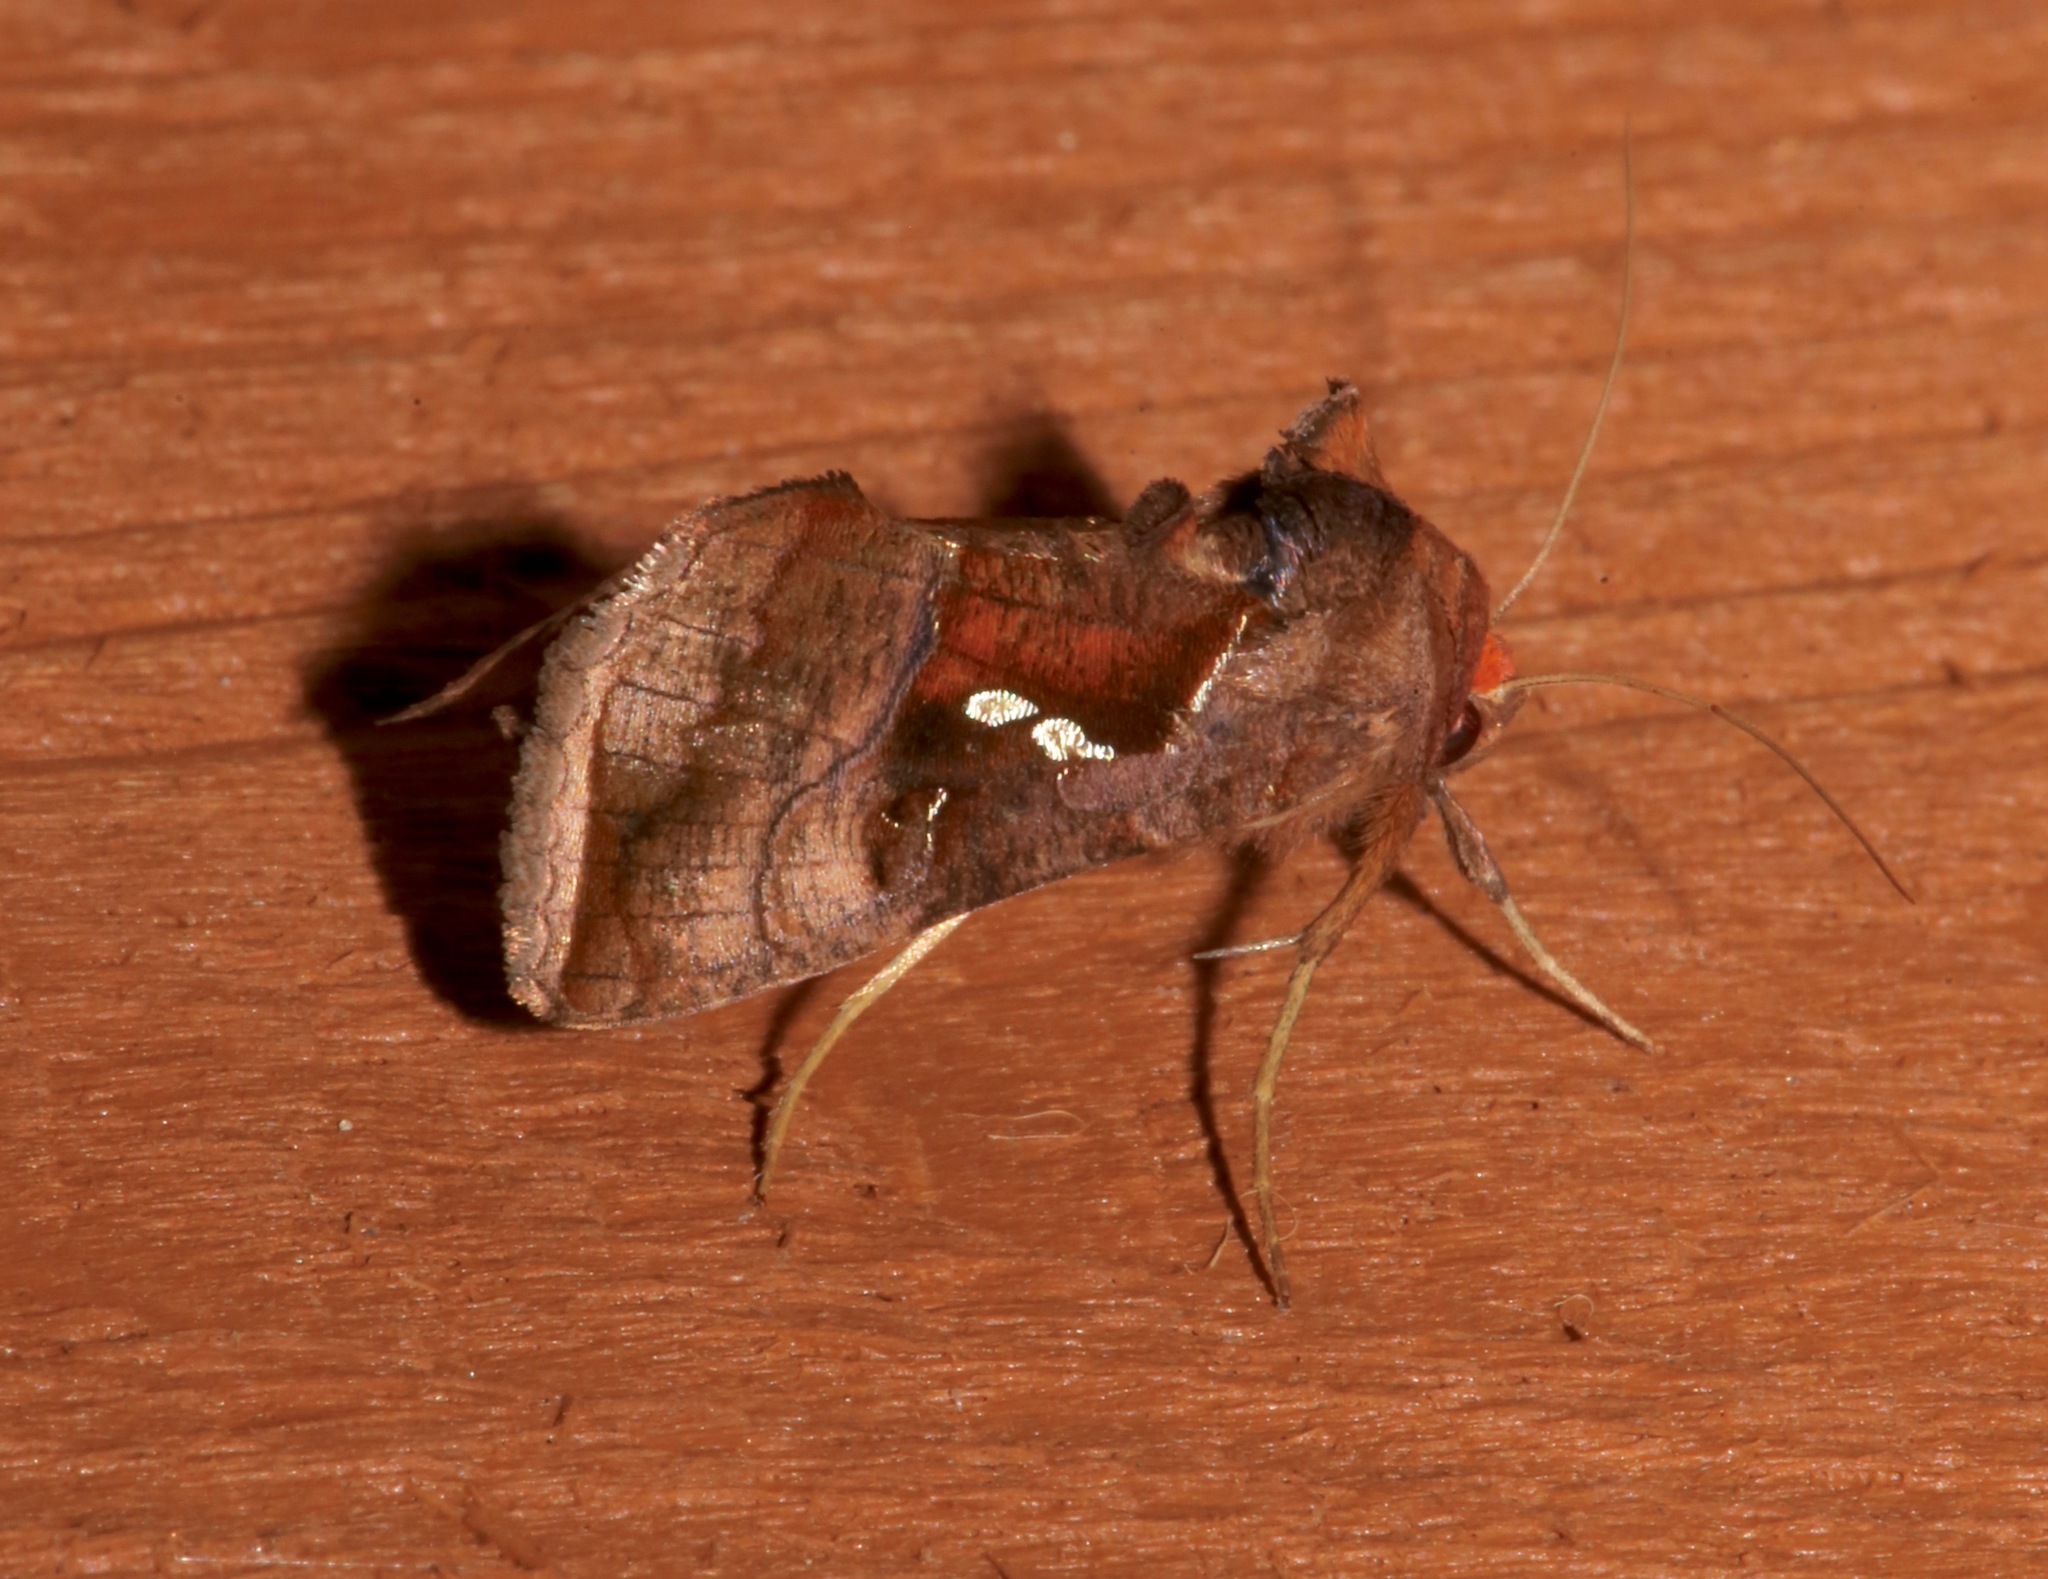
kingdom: Animalia
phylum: Arthropoda
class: Insecta
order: Lepidoptera
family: Noctuidae
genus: Enigmogramma
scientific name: Enigmogramma basigera
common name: Pink-washed looper moth
